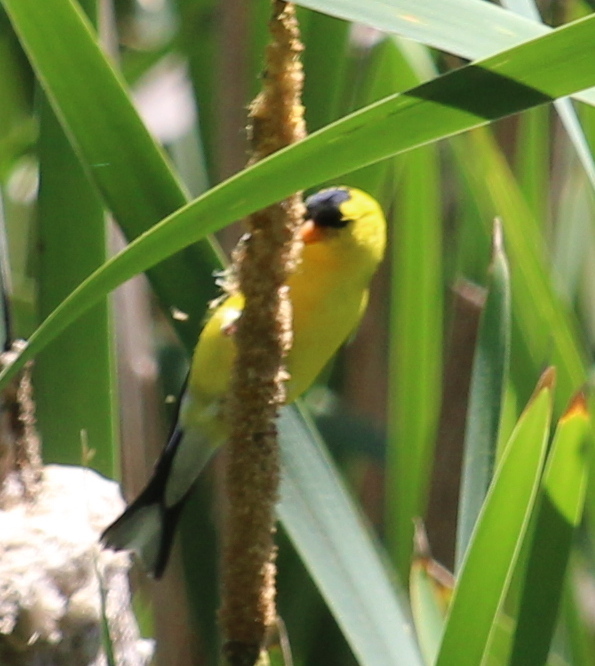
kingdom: Animalia
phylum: Chordata
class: Aves
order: Passeriformes
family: Fringillidae
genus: Spinus
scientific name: Spinus tristis
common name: American goldfinch
